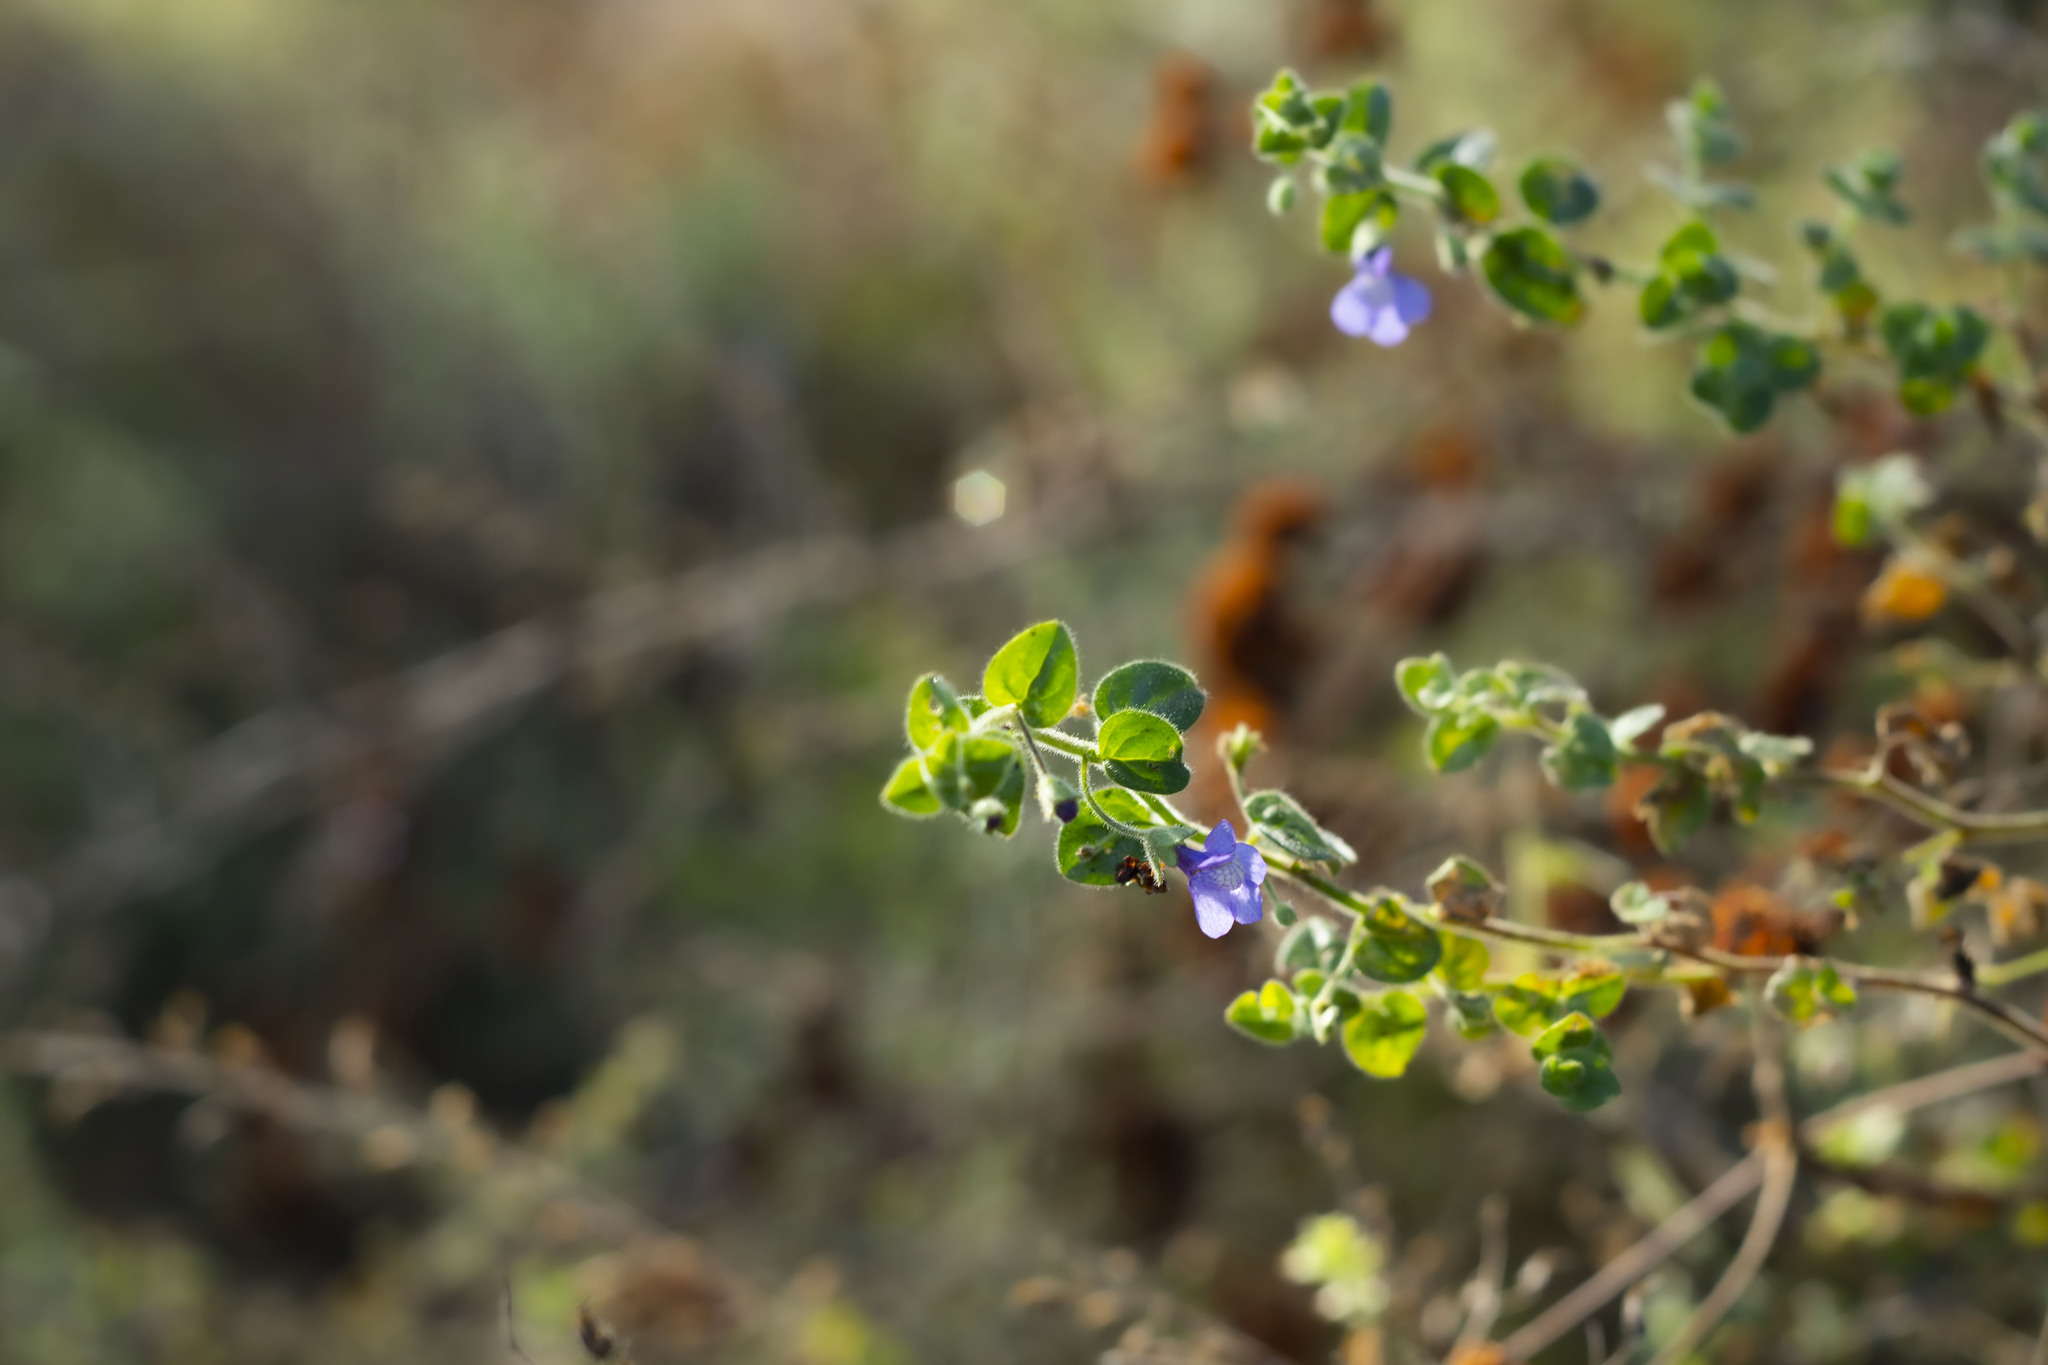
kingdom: Plantae
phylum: Tracheophyta
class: Magnoliopsida
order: Lamiales
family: Plantaginaceae
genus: Sairocarpus
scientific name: Sairocarpus nuttallianus
